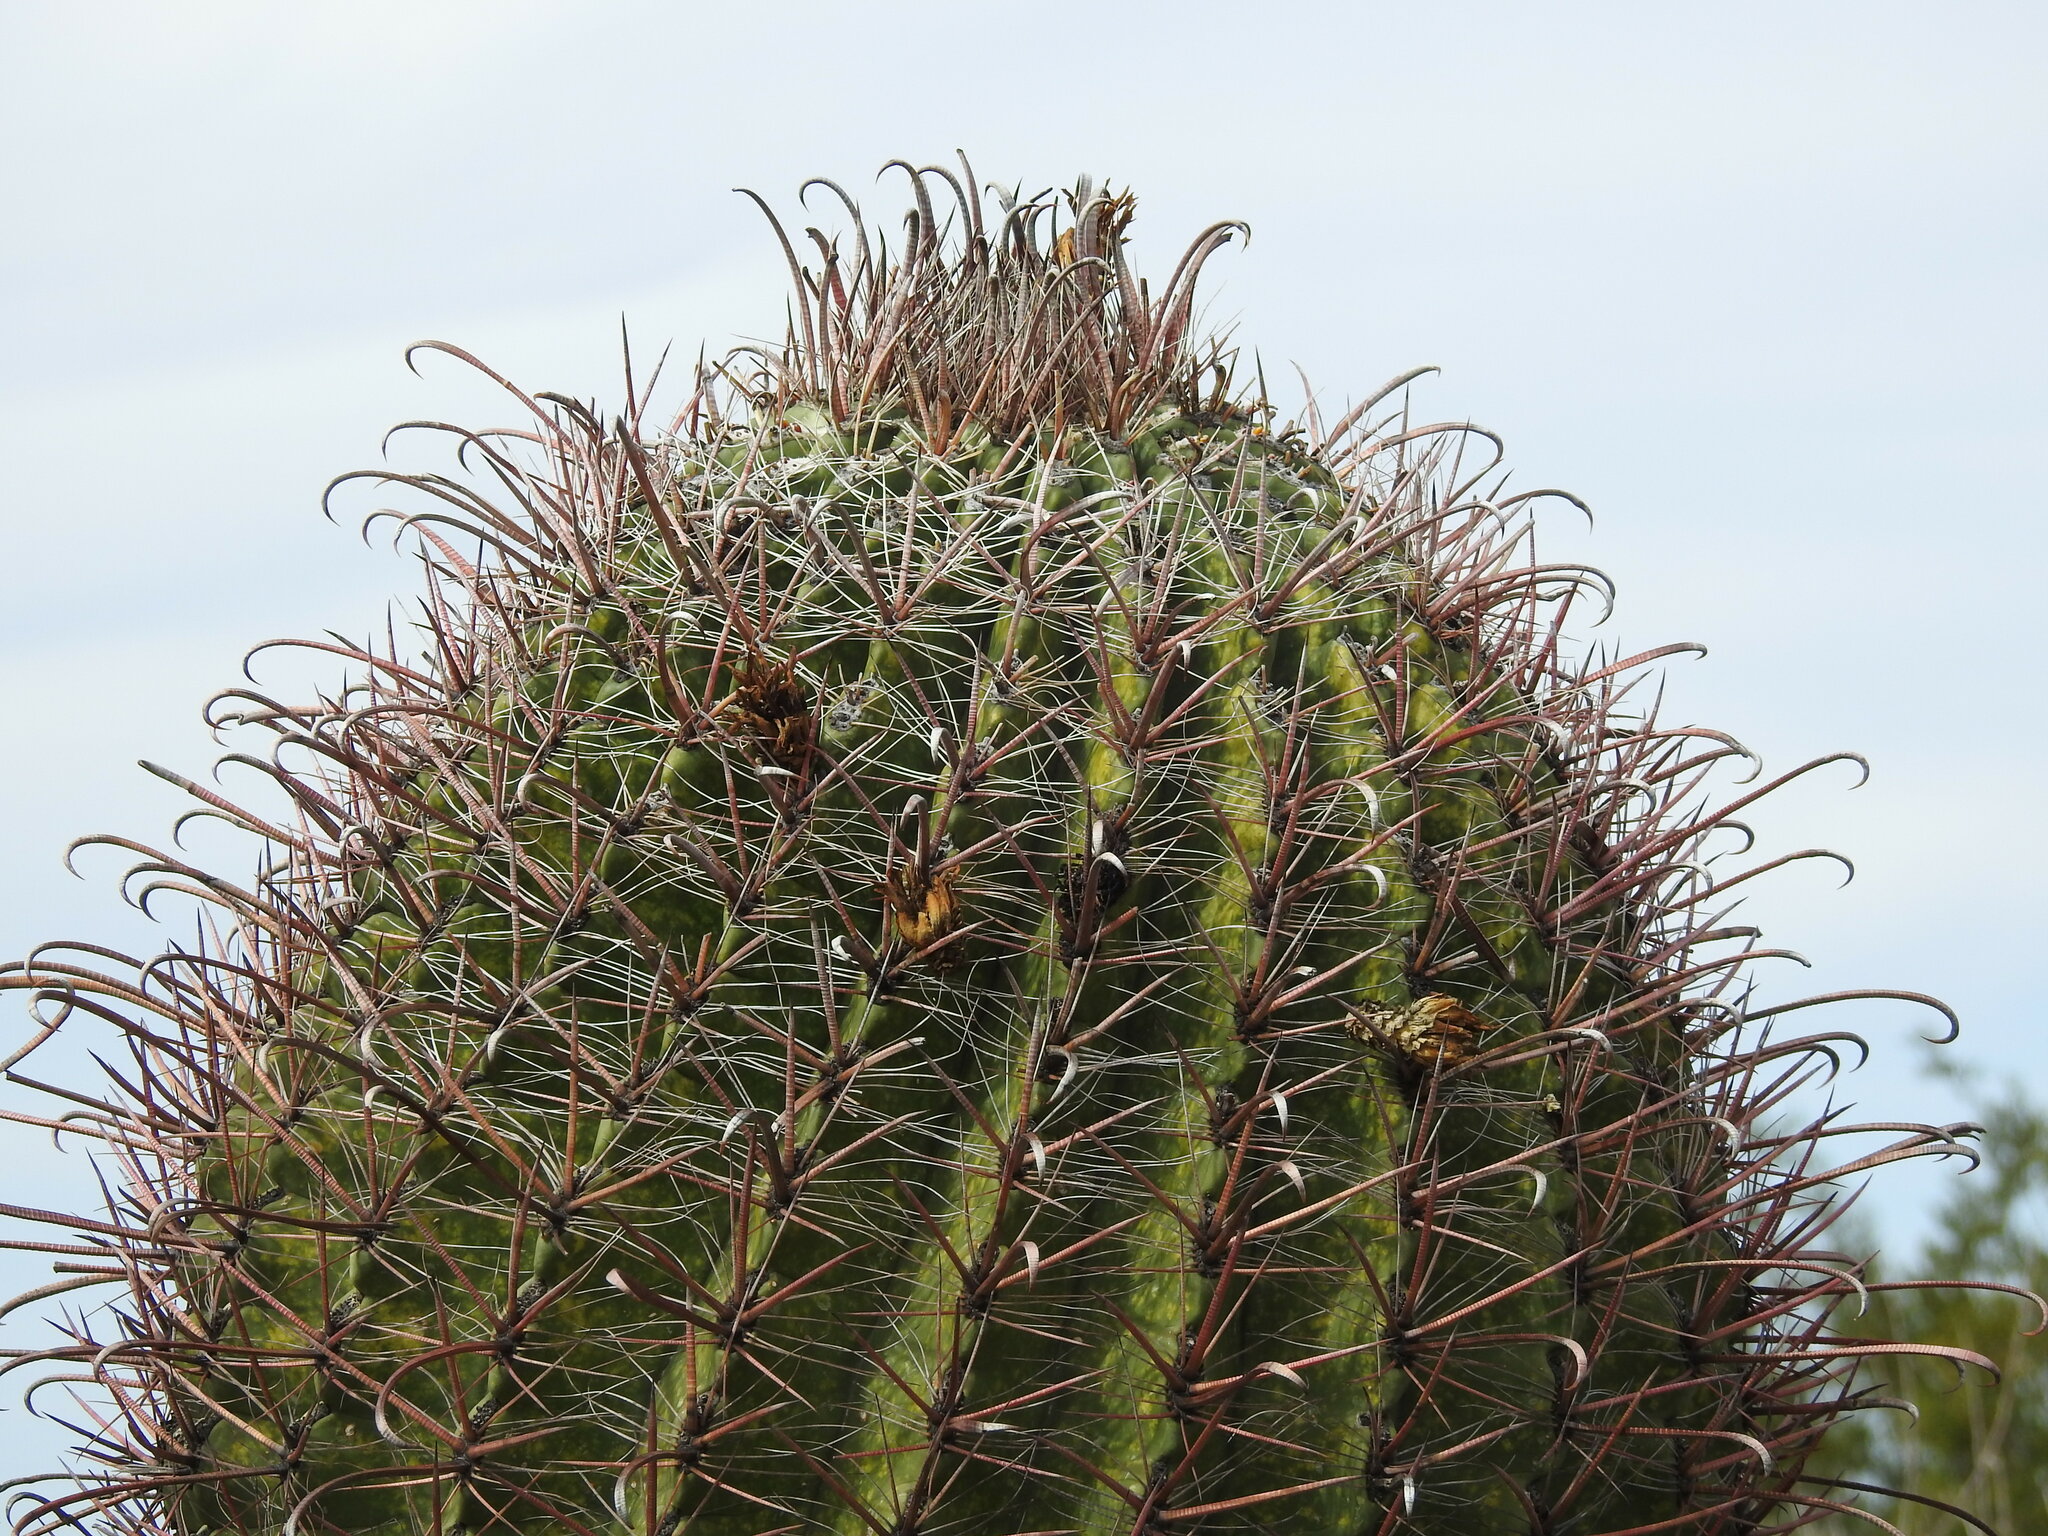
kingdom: Plantae
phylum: Tracheophyta
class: Magnoliopsida
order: Caryophyllales
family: Cactaceae
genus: Ferocactus
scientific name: Ferocactus wislizeni
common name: Candy barrel cactus
